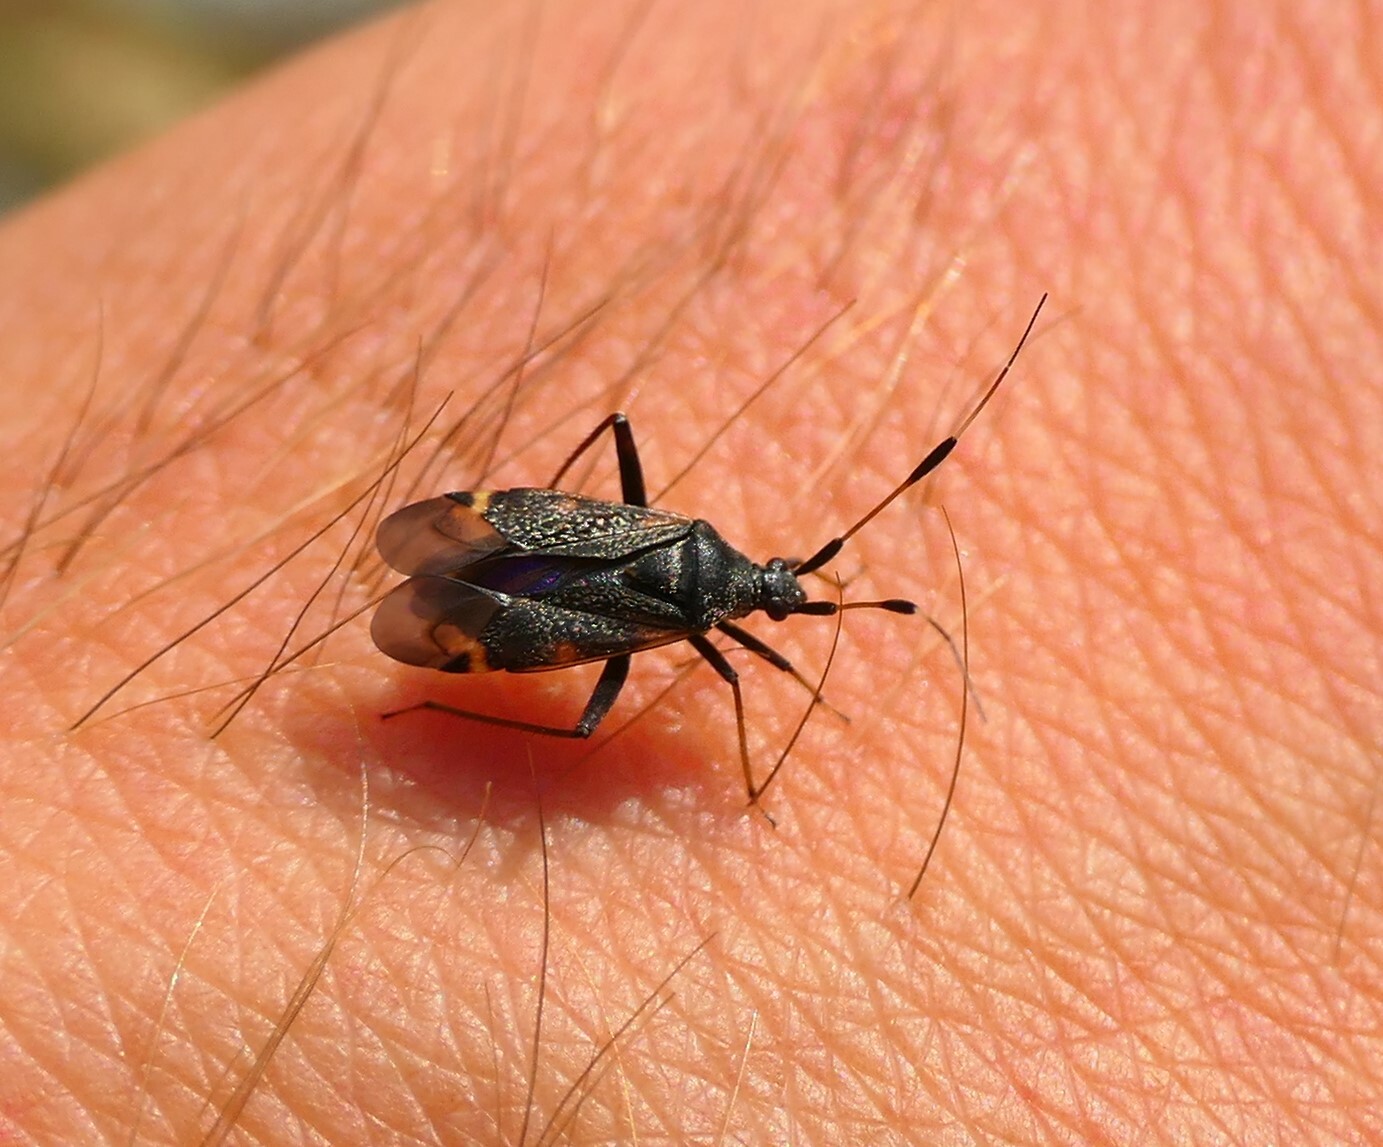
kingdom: Animalia
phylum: Arthropoda
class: Insecta
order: Hemiptera
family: Miridae
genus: Closterotomus
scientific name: Closterotomus biclavatus
